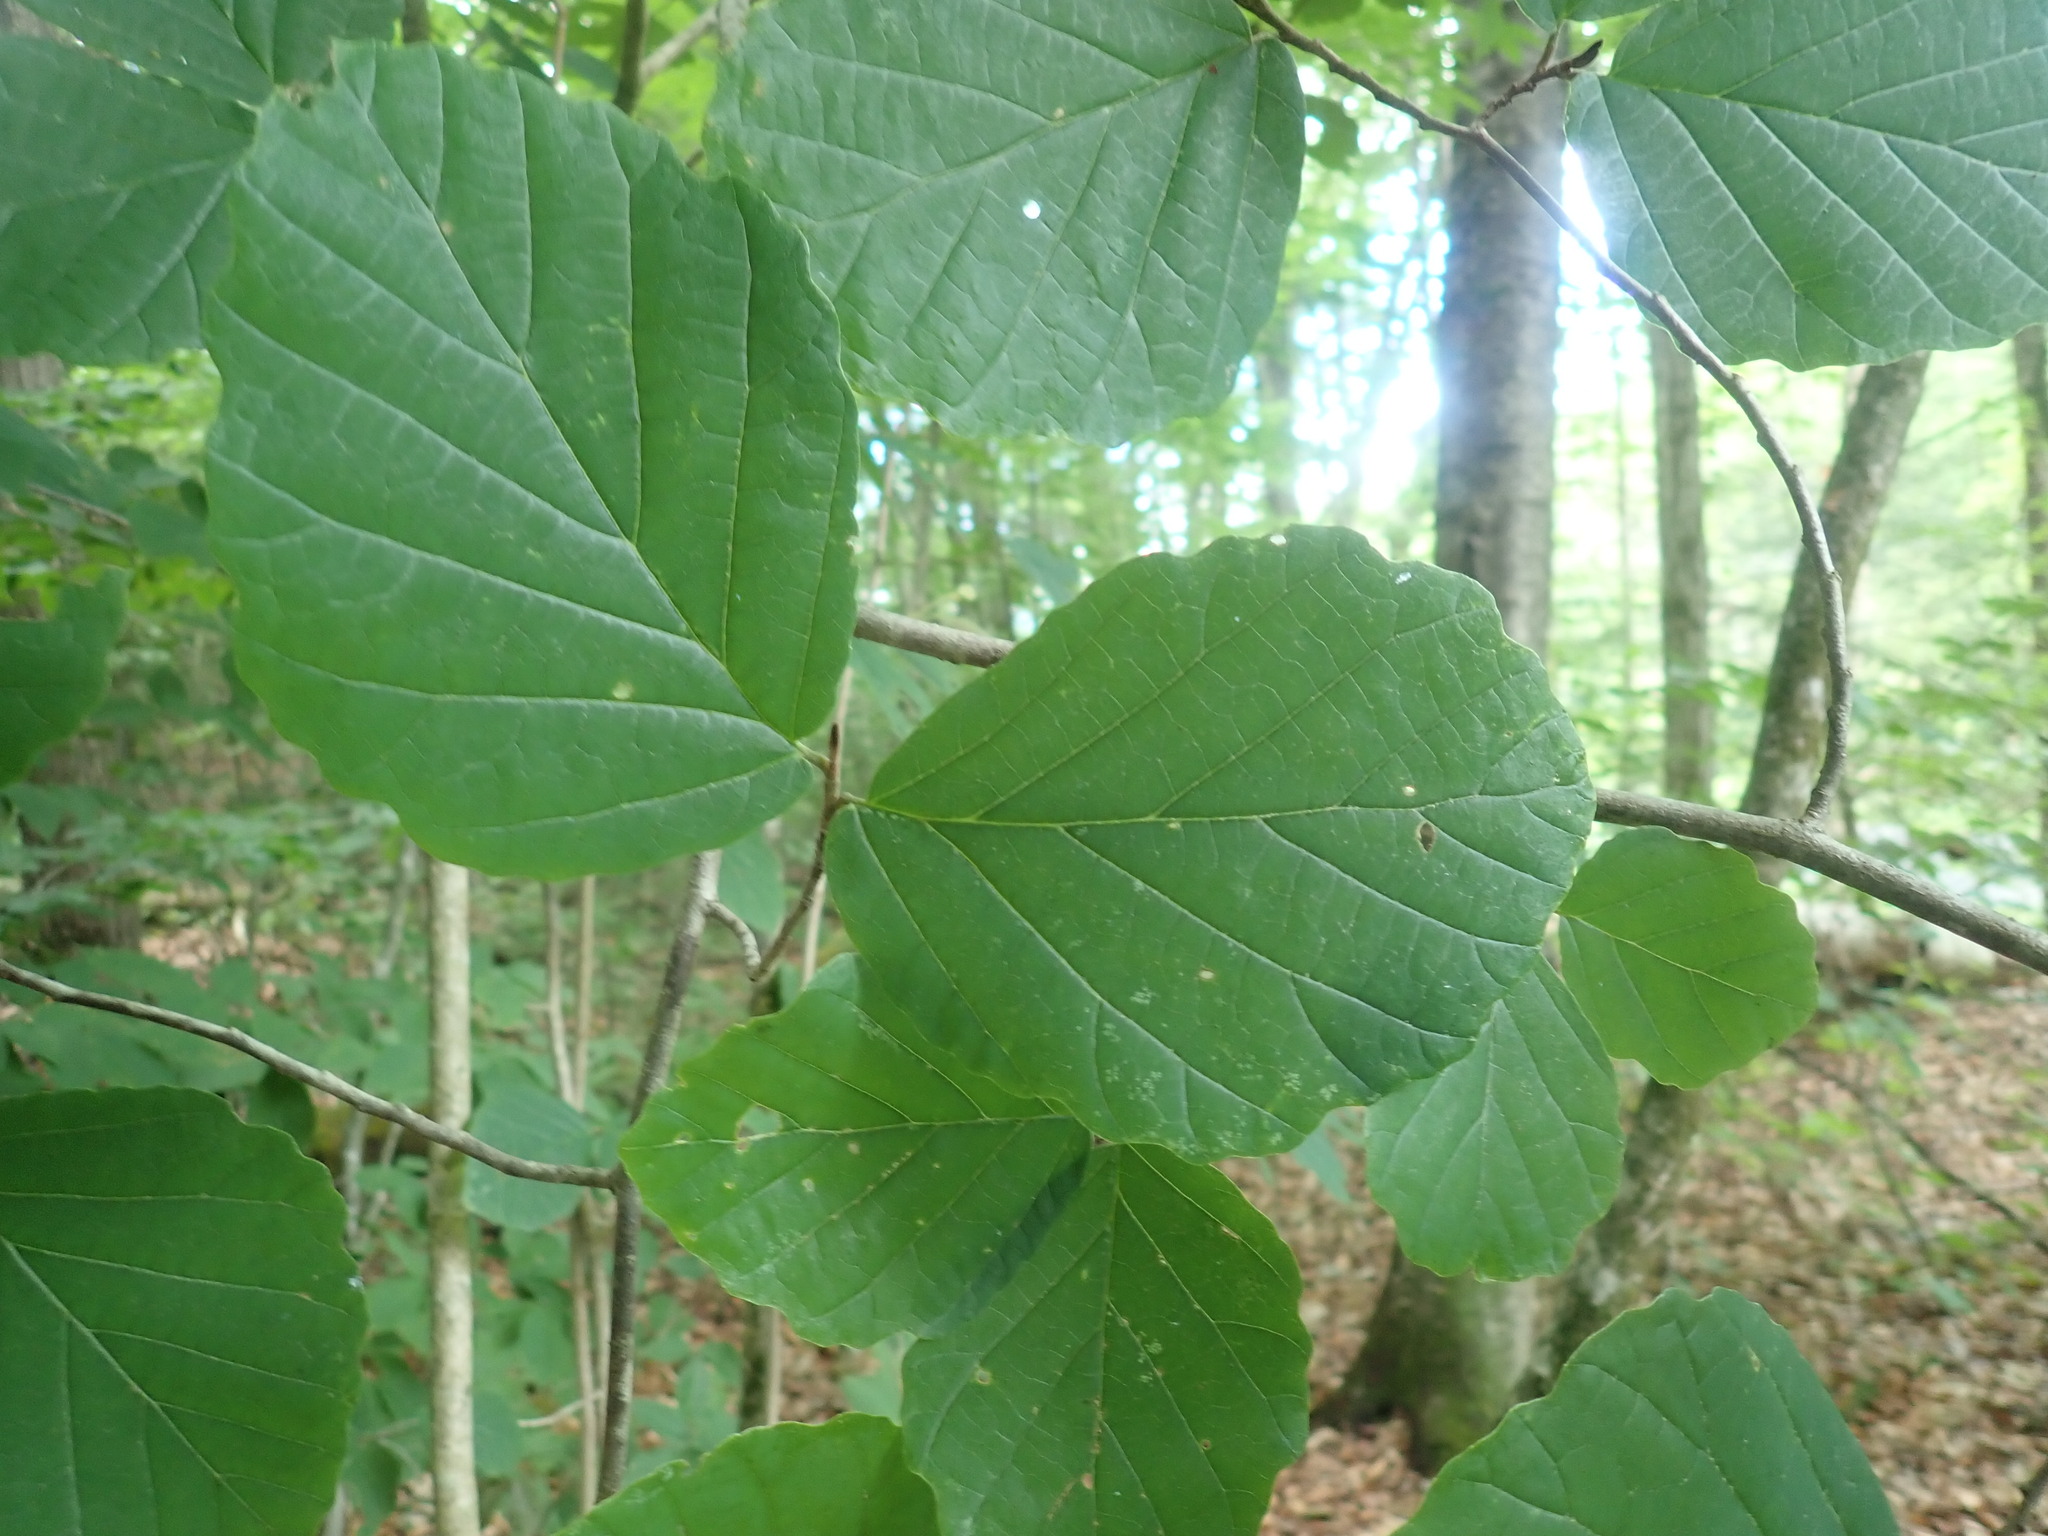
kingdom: Plantae
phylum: Tracheophyta
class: Magnoliopsida
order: Saxifragales
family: Hamamelidaceae
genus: Hamamelis
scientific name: Hamamelis virginiana
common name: Witch-hazel
